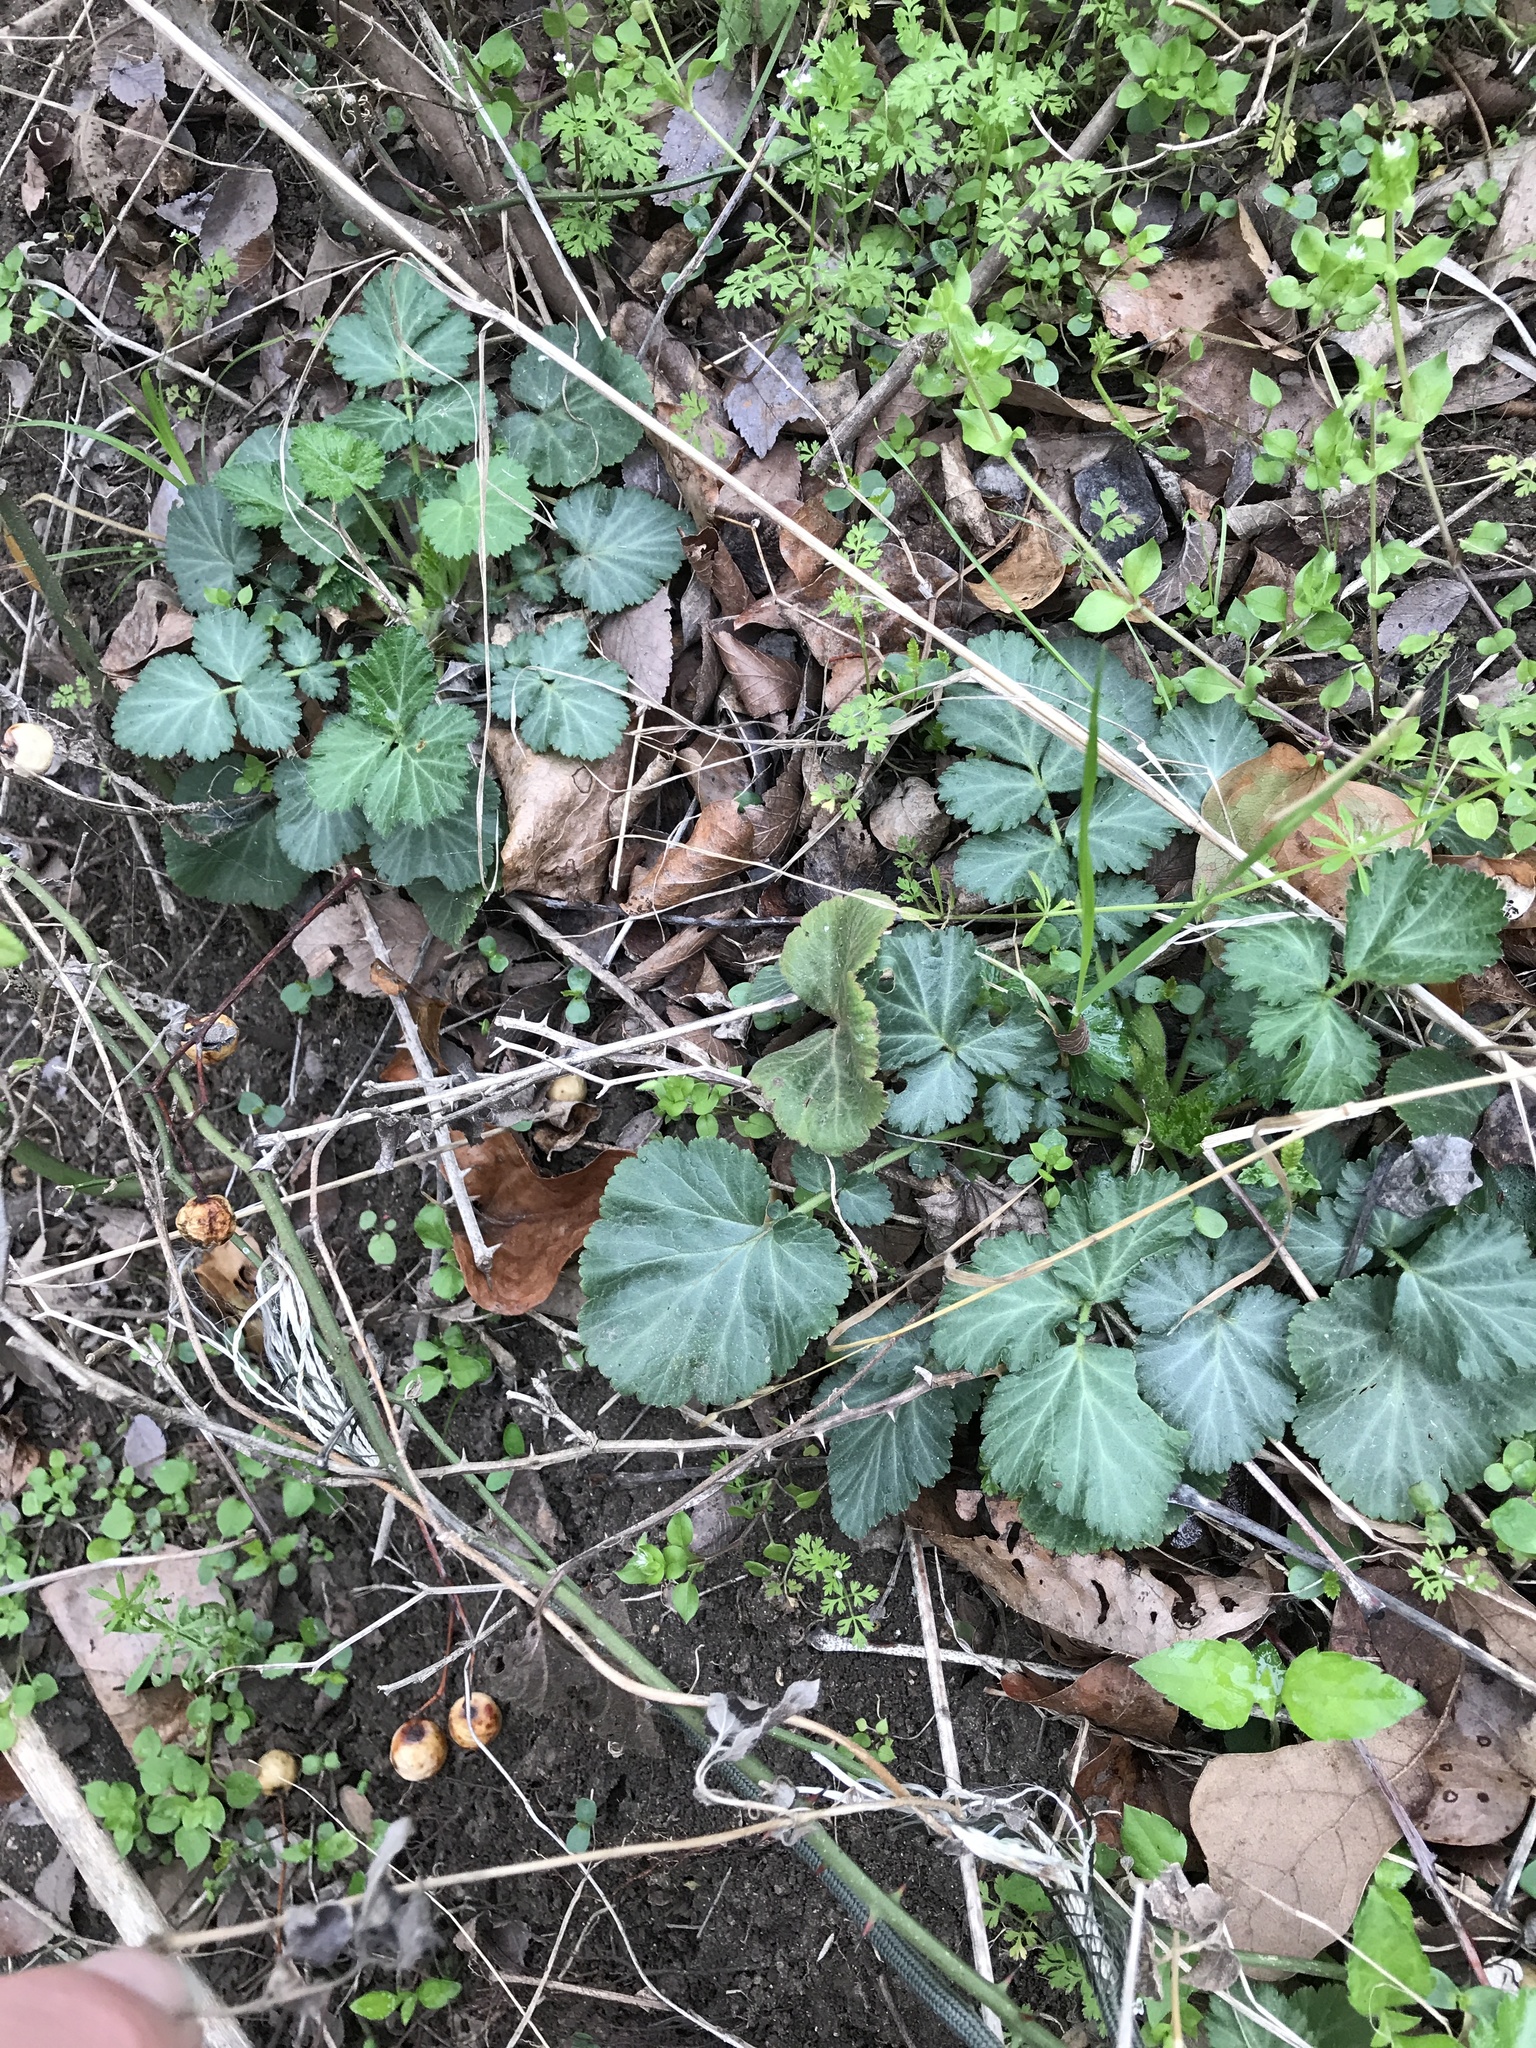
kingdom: Plantae
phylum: Tracheophyta
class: Magnoliopsida
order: Rosales
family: Rosaceae
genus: Geum
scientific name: Geum canadense
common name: White avens
